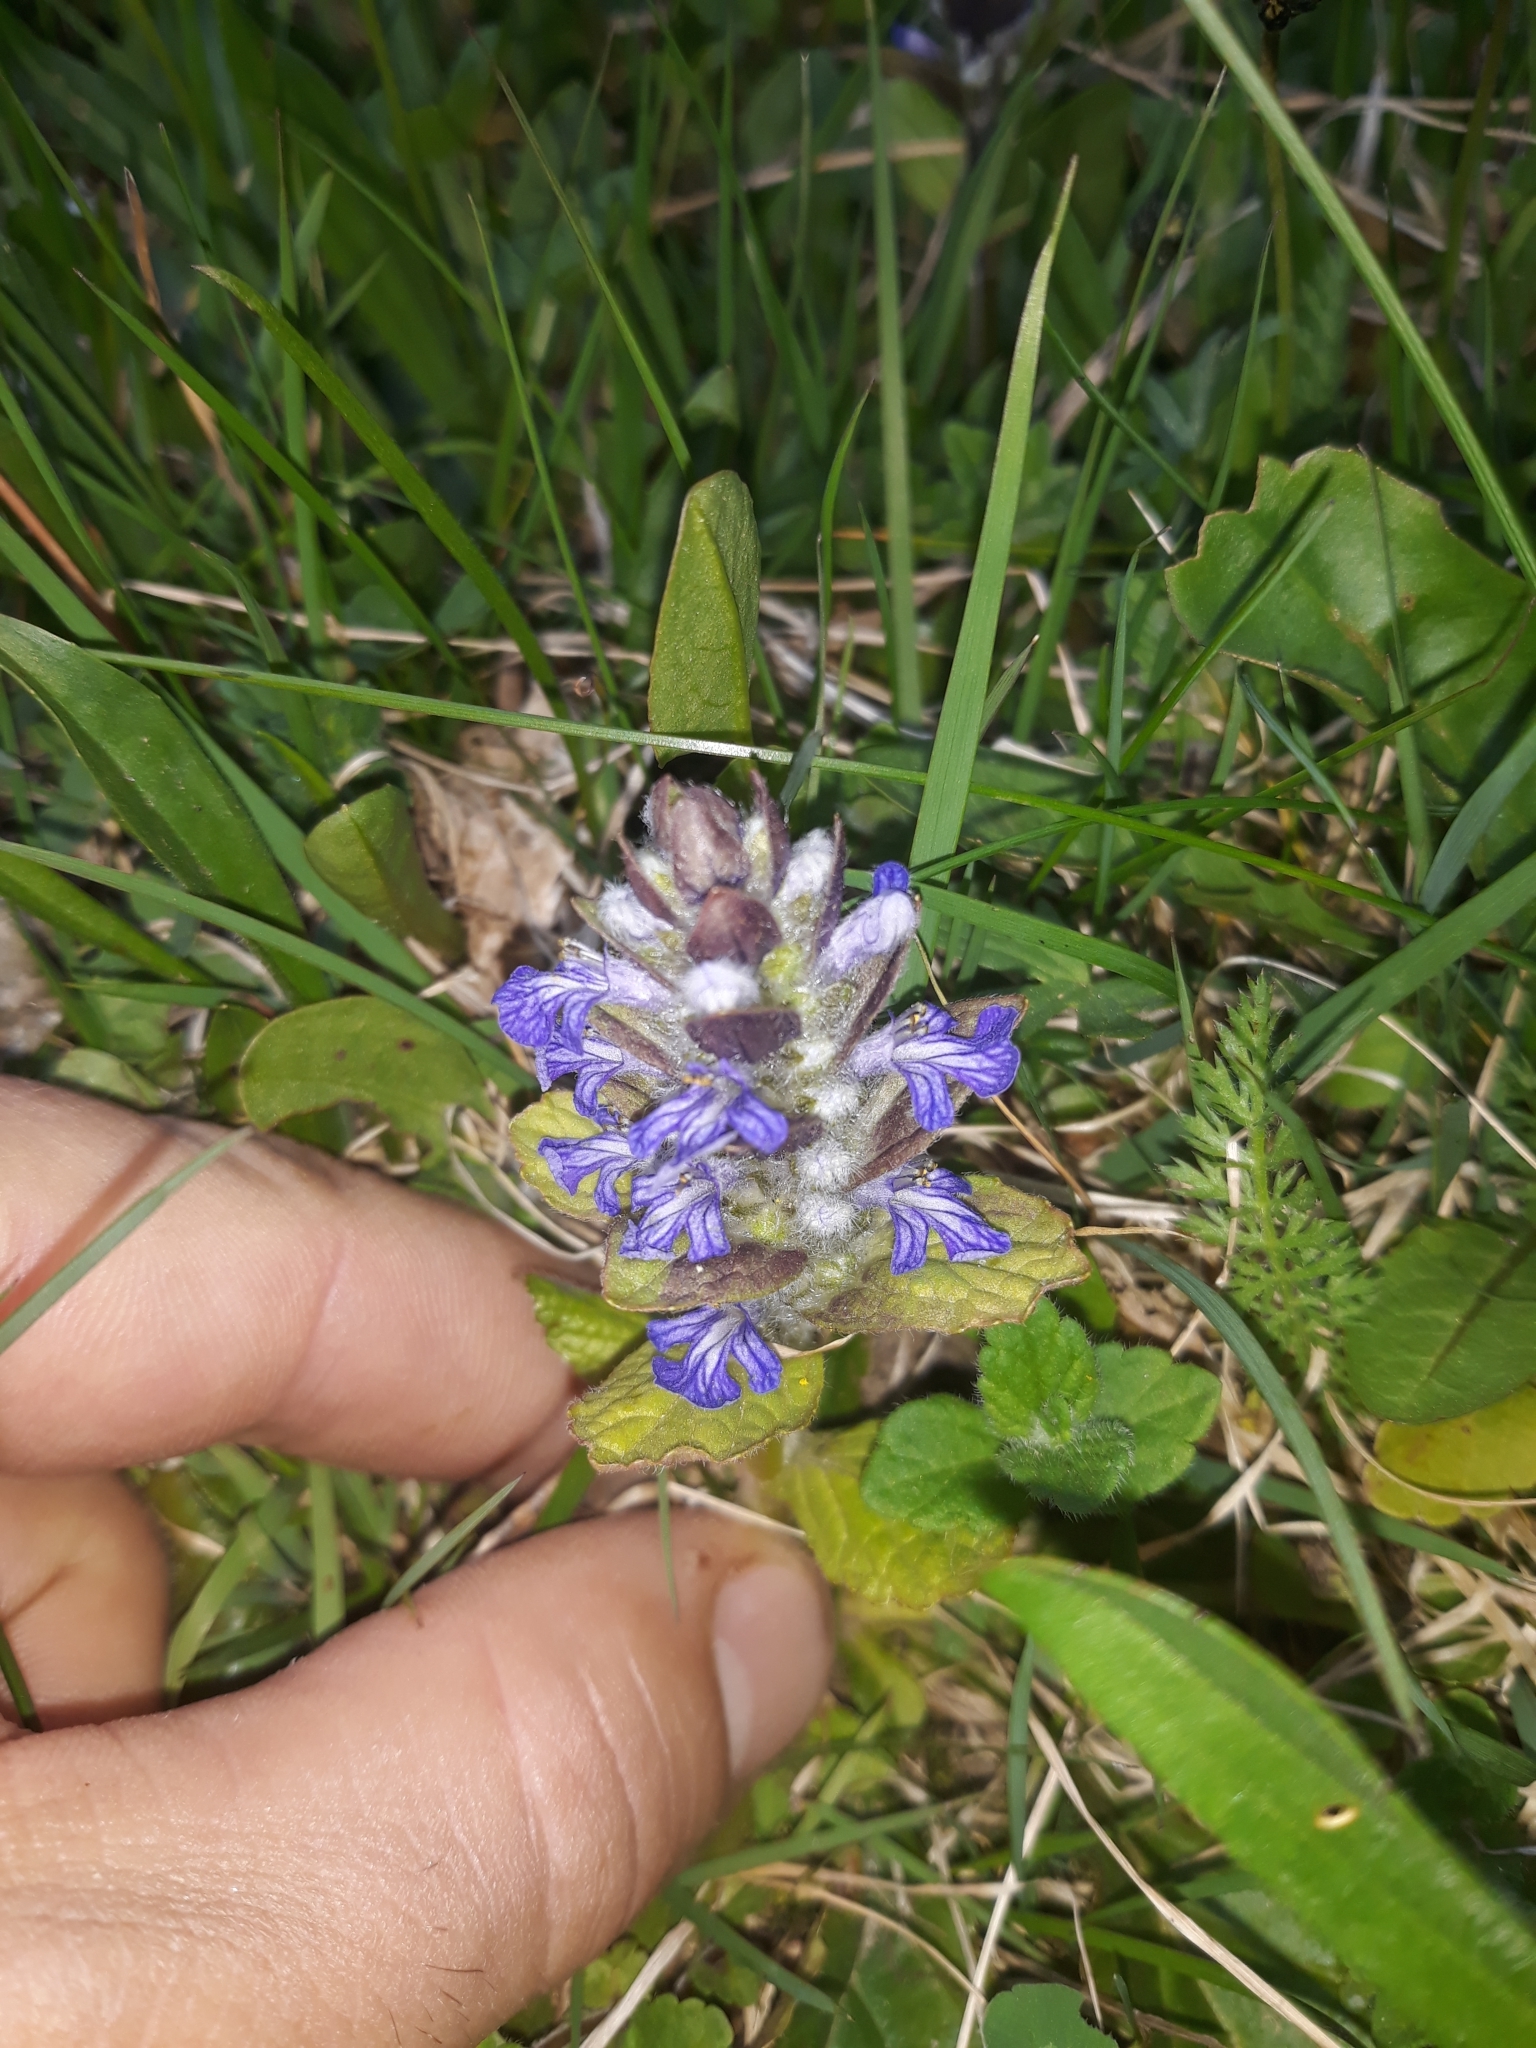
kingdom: Plantae
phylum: Tracheophyta
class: Magnoliopsida
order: Lamiales
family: Lamiaceae
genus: Ajuga
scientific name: Ajuga reptans
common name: Bugle
